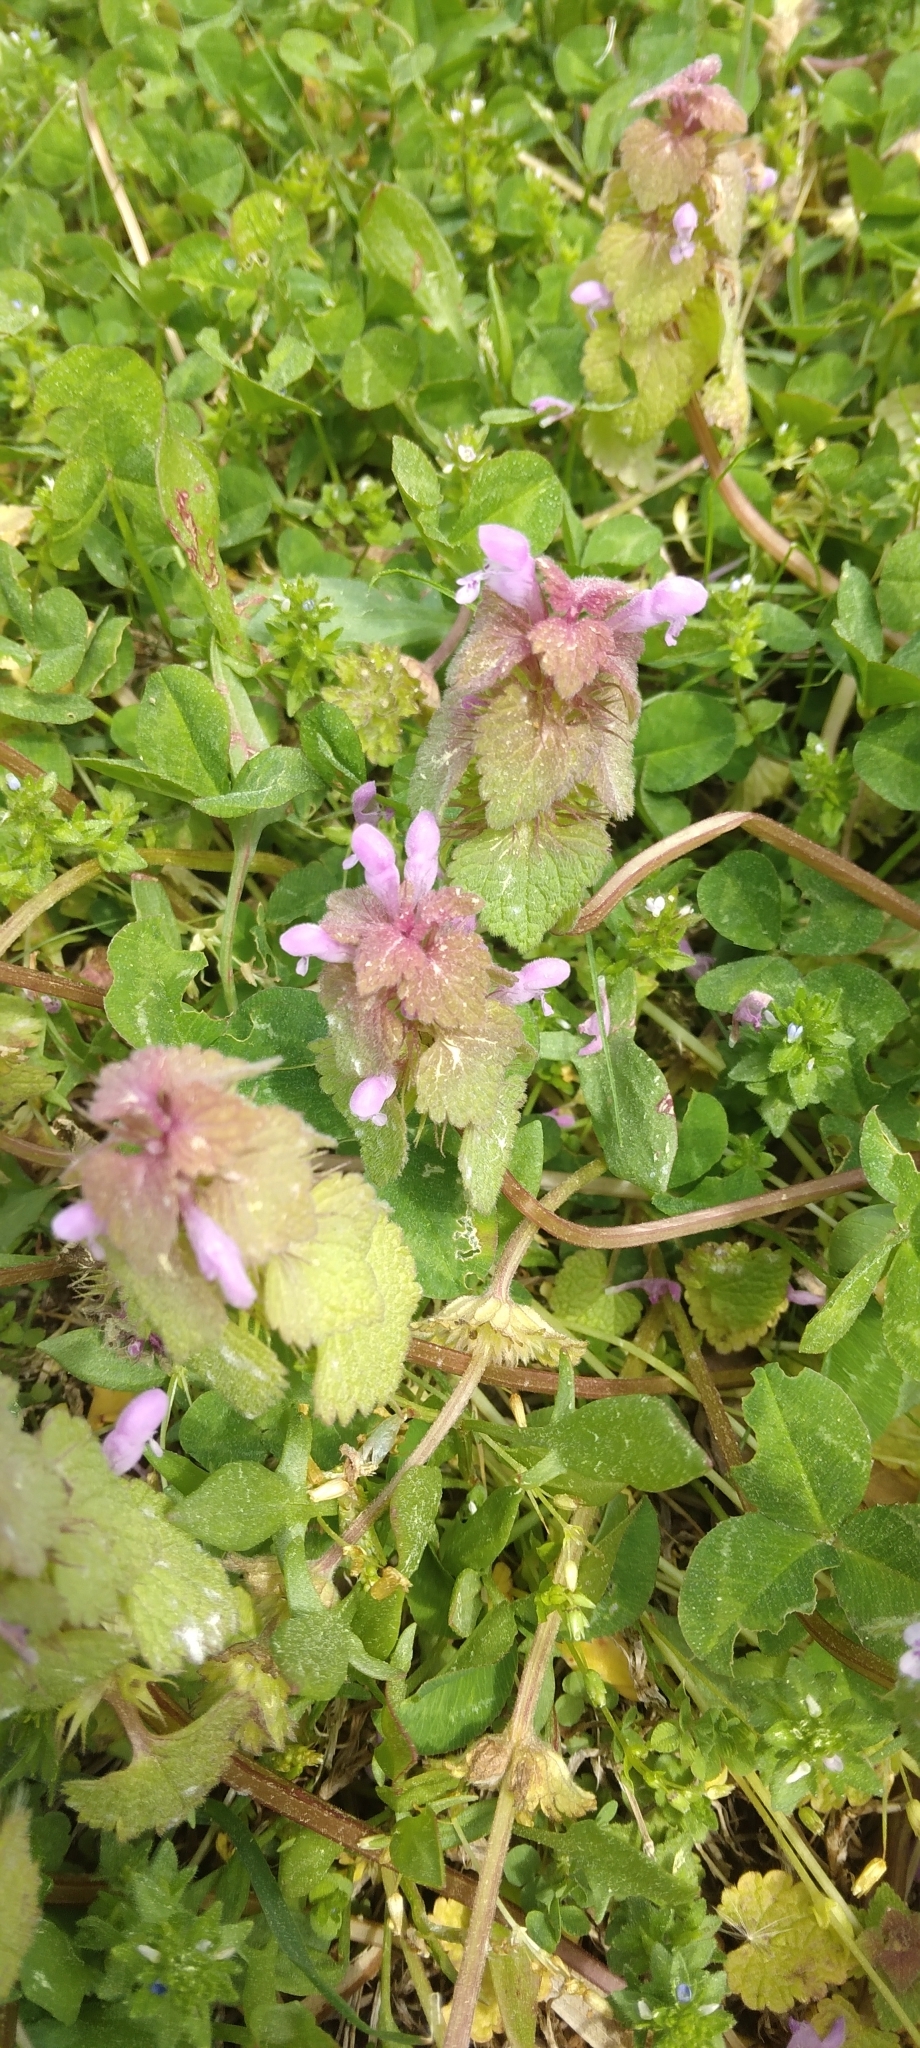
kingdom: Plantae
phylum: Tracheophyta
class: Magnoliopsida
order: Lamiales
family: Lamiaceae
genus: Lamium
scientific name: Lamium purpureum
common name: Red dead-nettle
